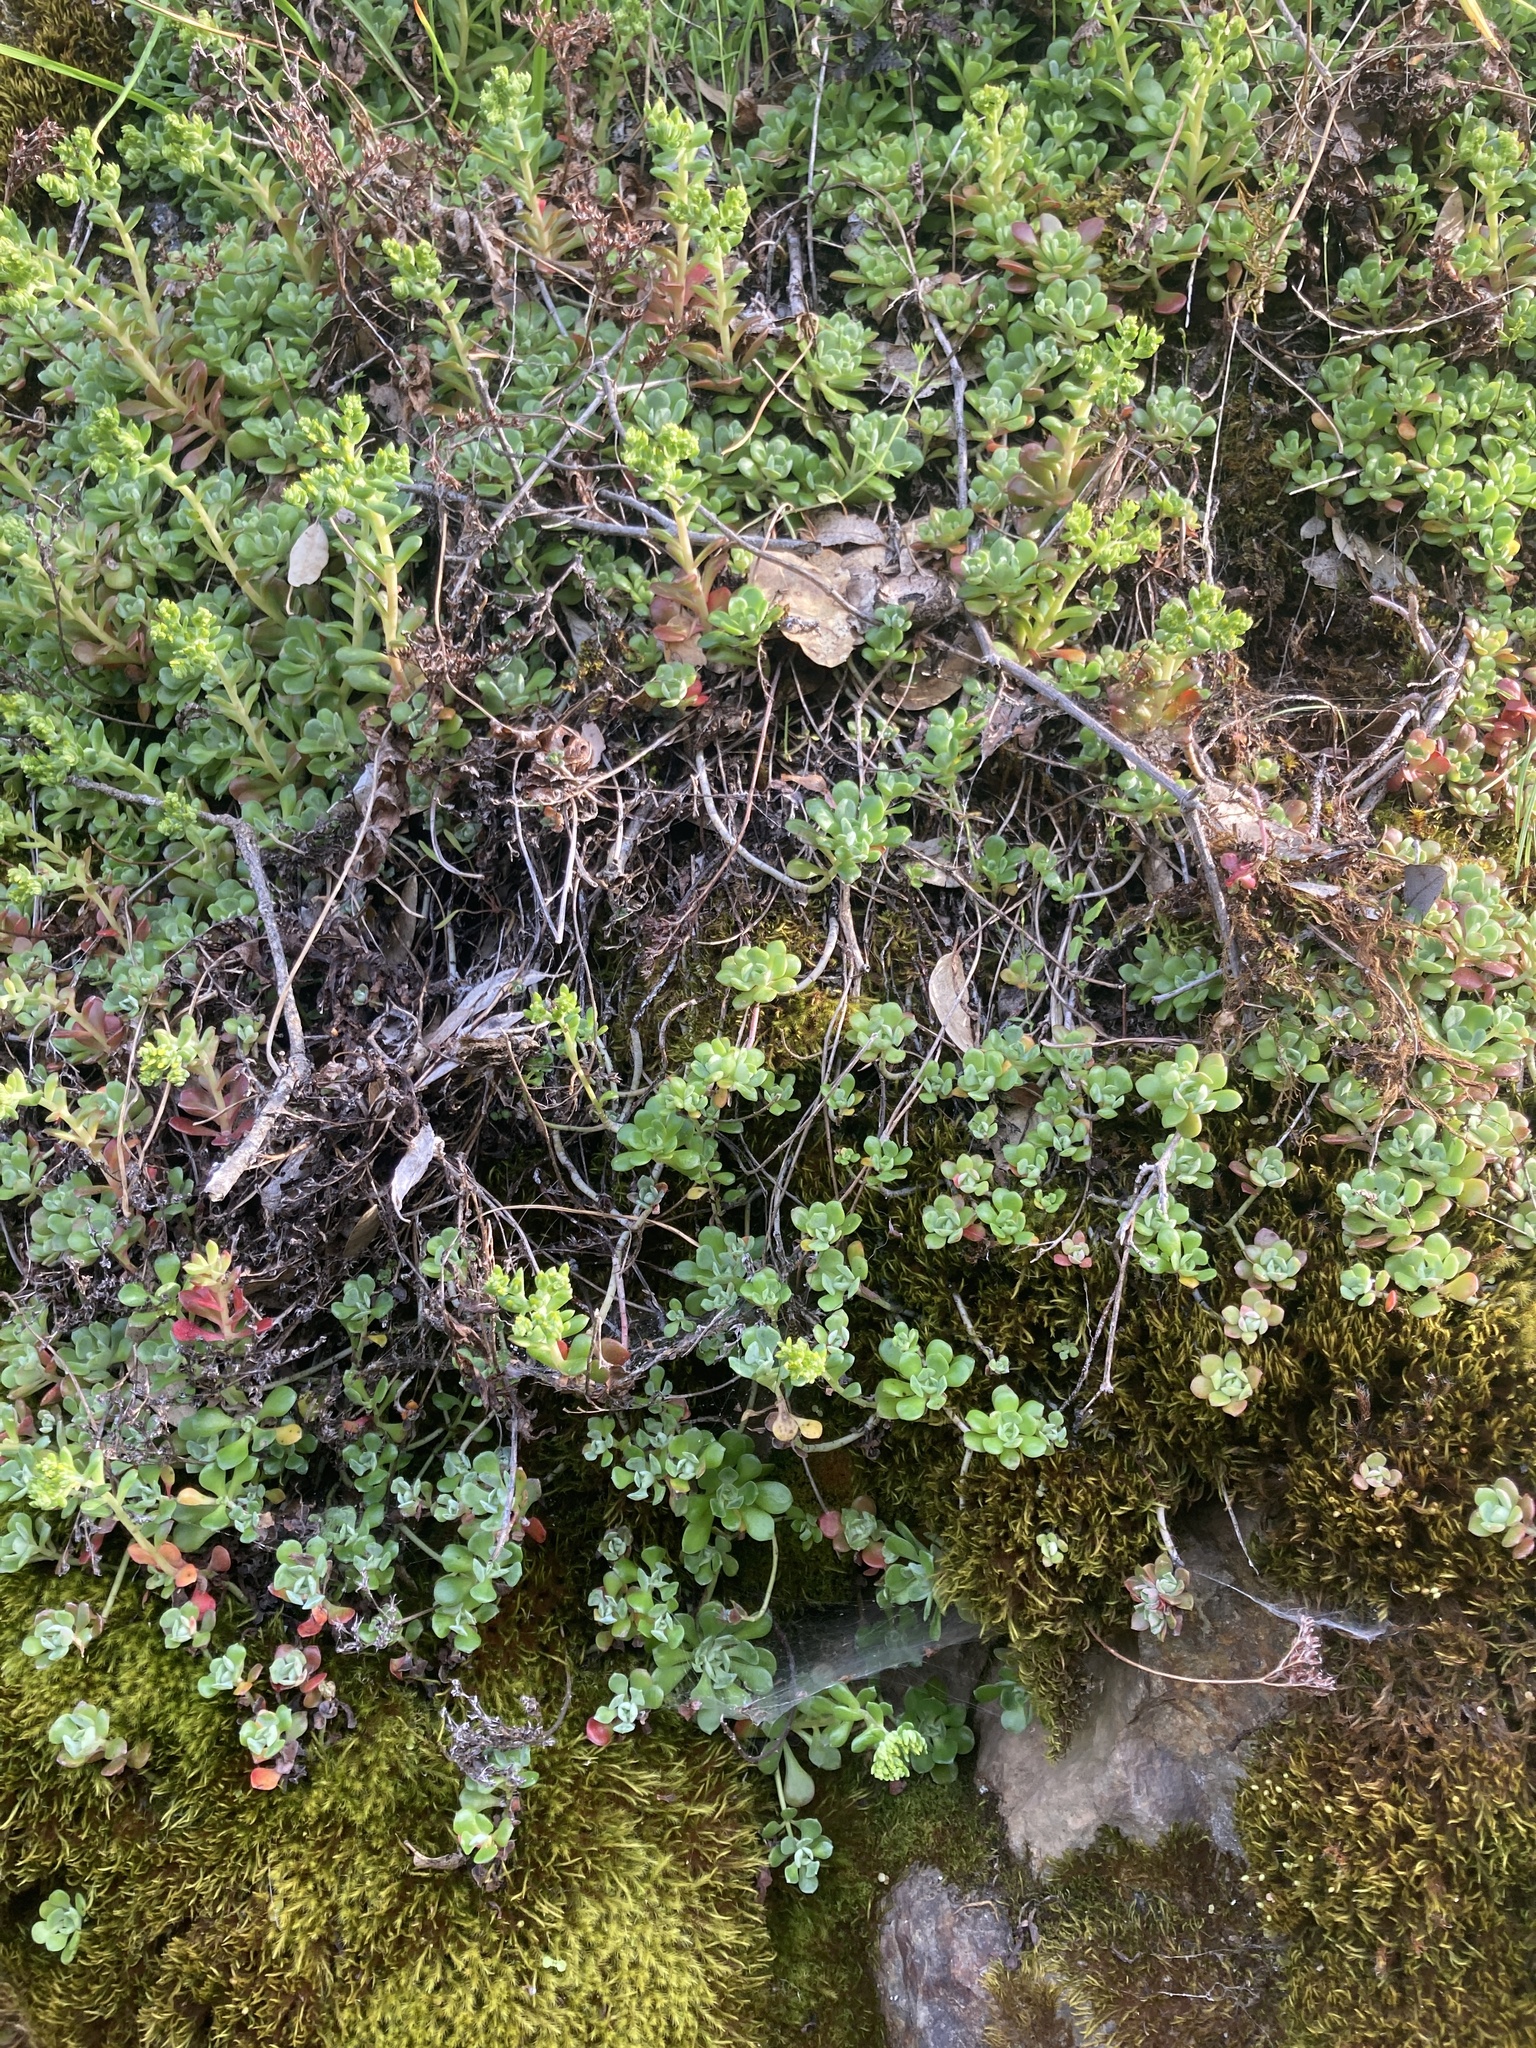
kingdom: Plantae
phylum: Tracheophyta
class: Magnoliopsida
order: Saxifragales
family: Crassulaceae
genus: Sedum
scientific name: Sedum spathulifolium
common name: Colorado stonecrop
